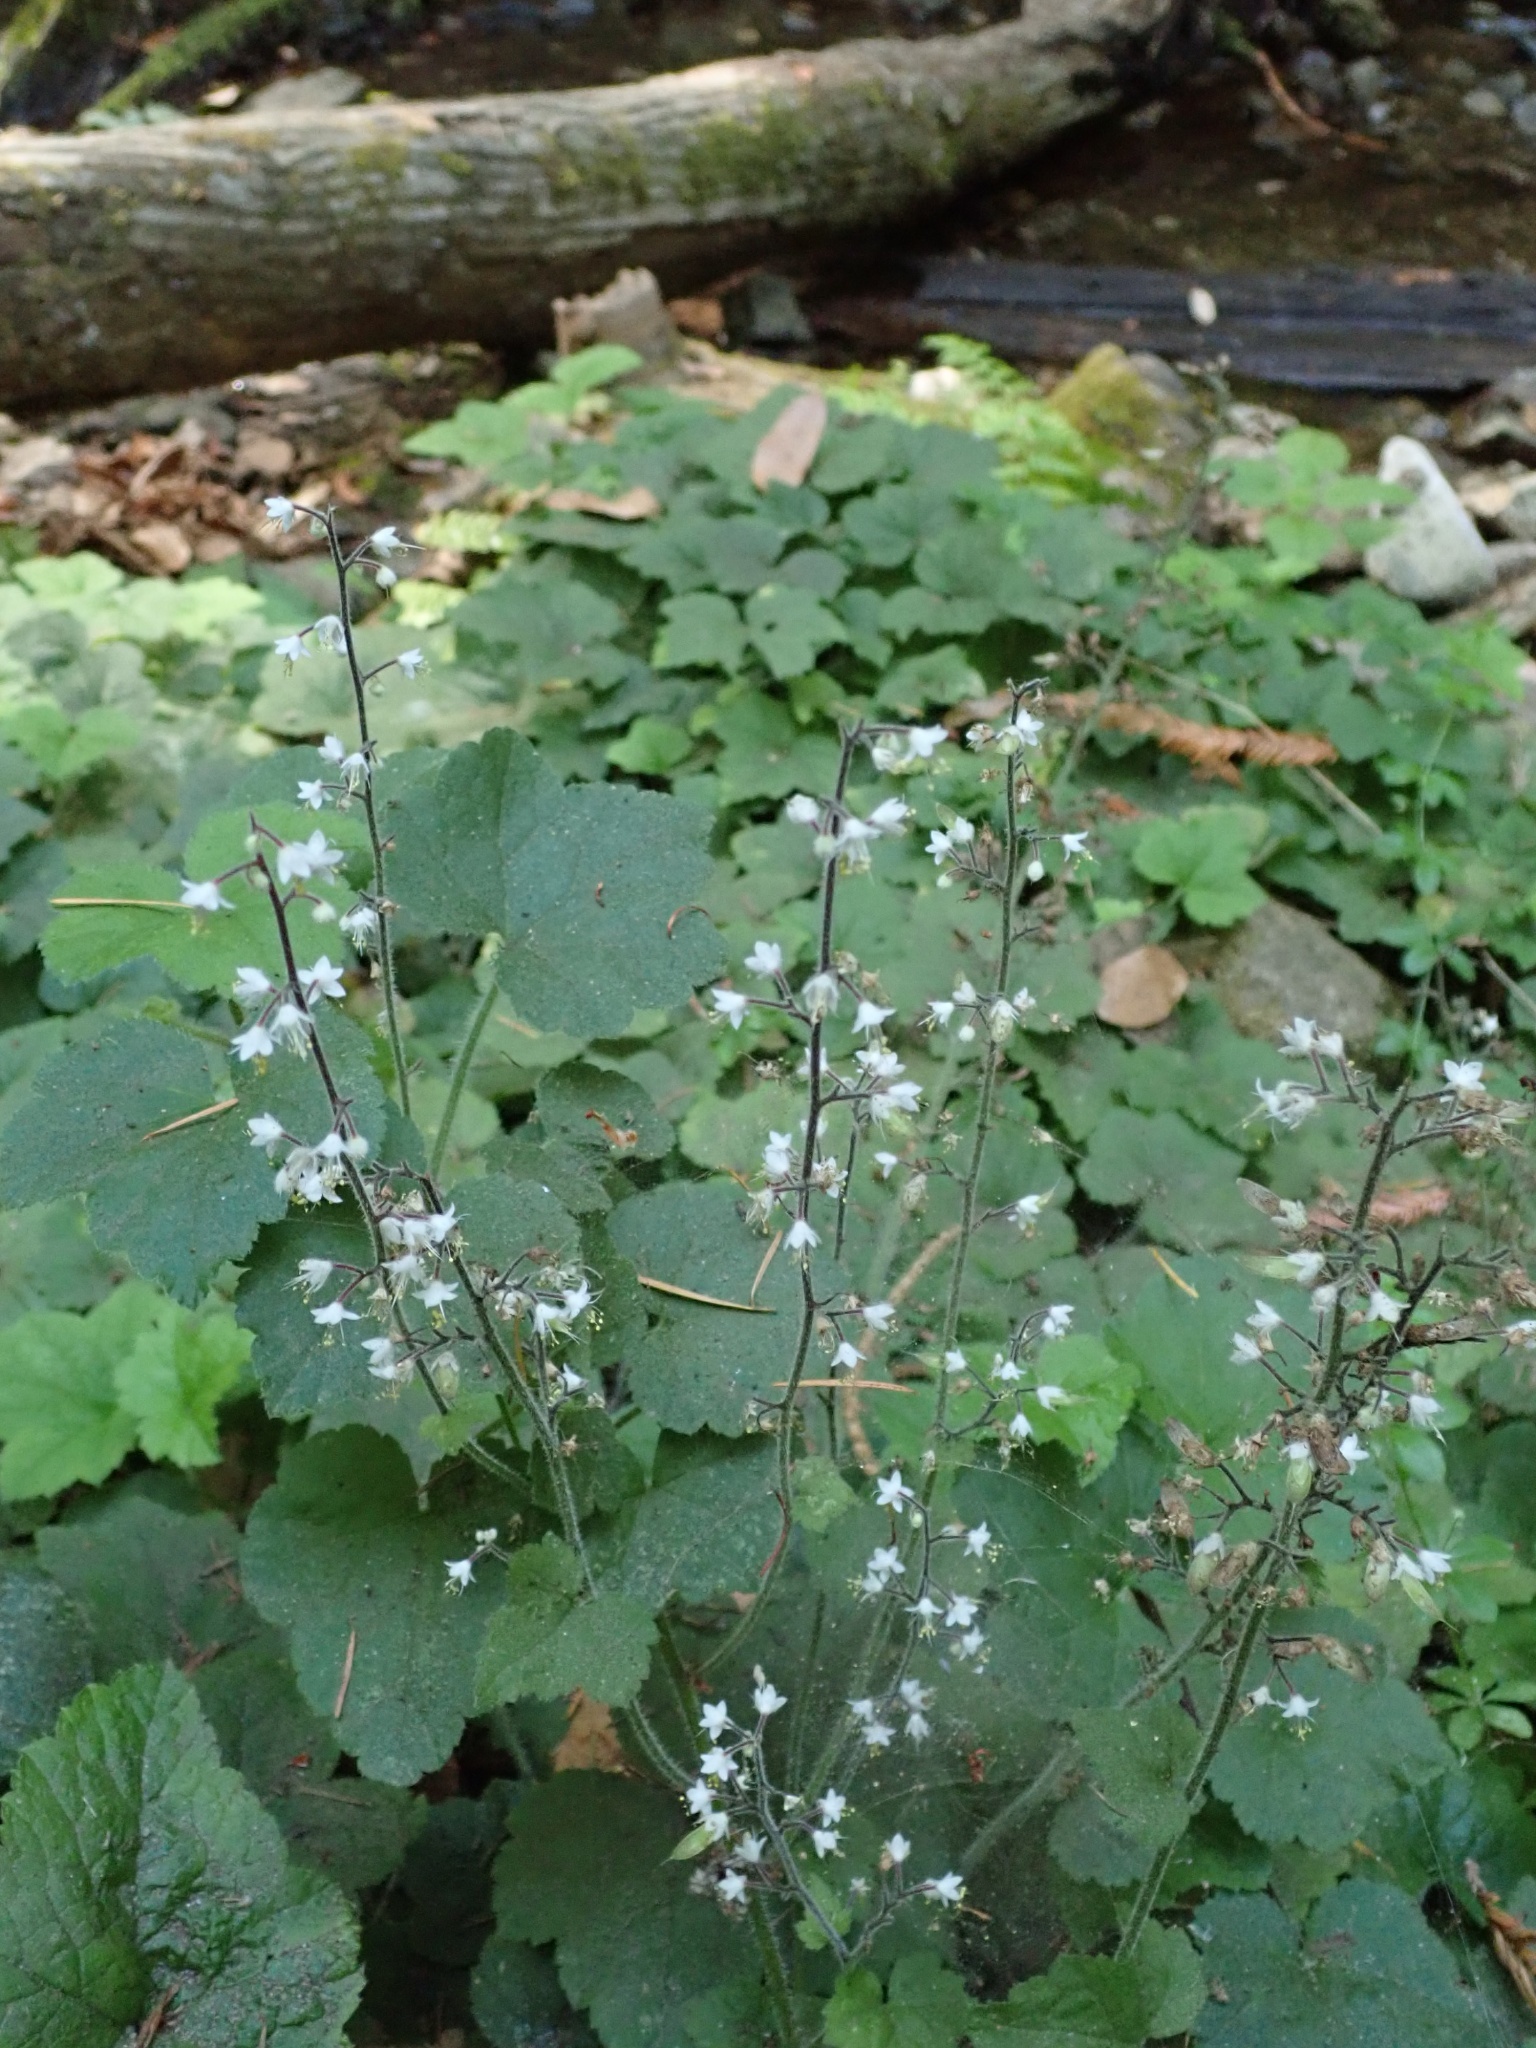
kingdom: Plantae
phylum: Tracheophyta
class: Magnoliopsida
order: Saxifragales
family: Saxifragaceae
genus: Tiarella
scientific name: Tiarella trifoliata
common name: Sugar-scoop
